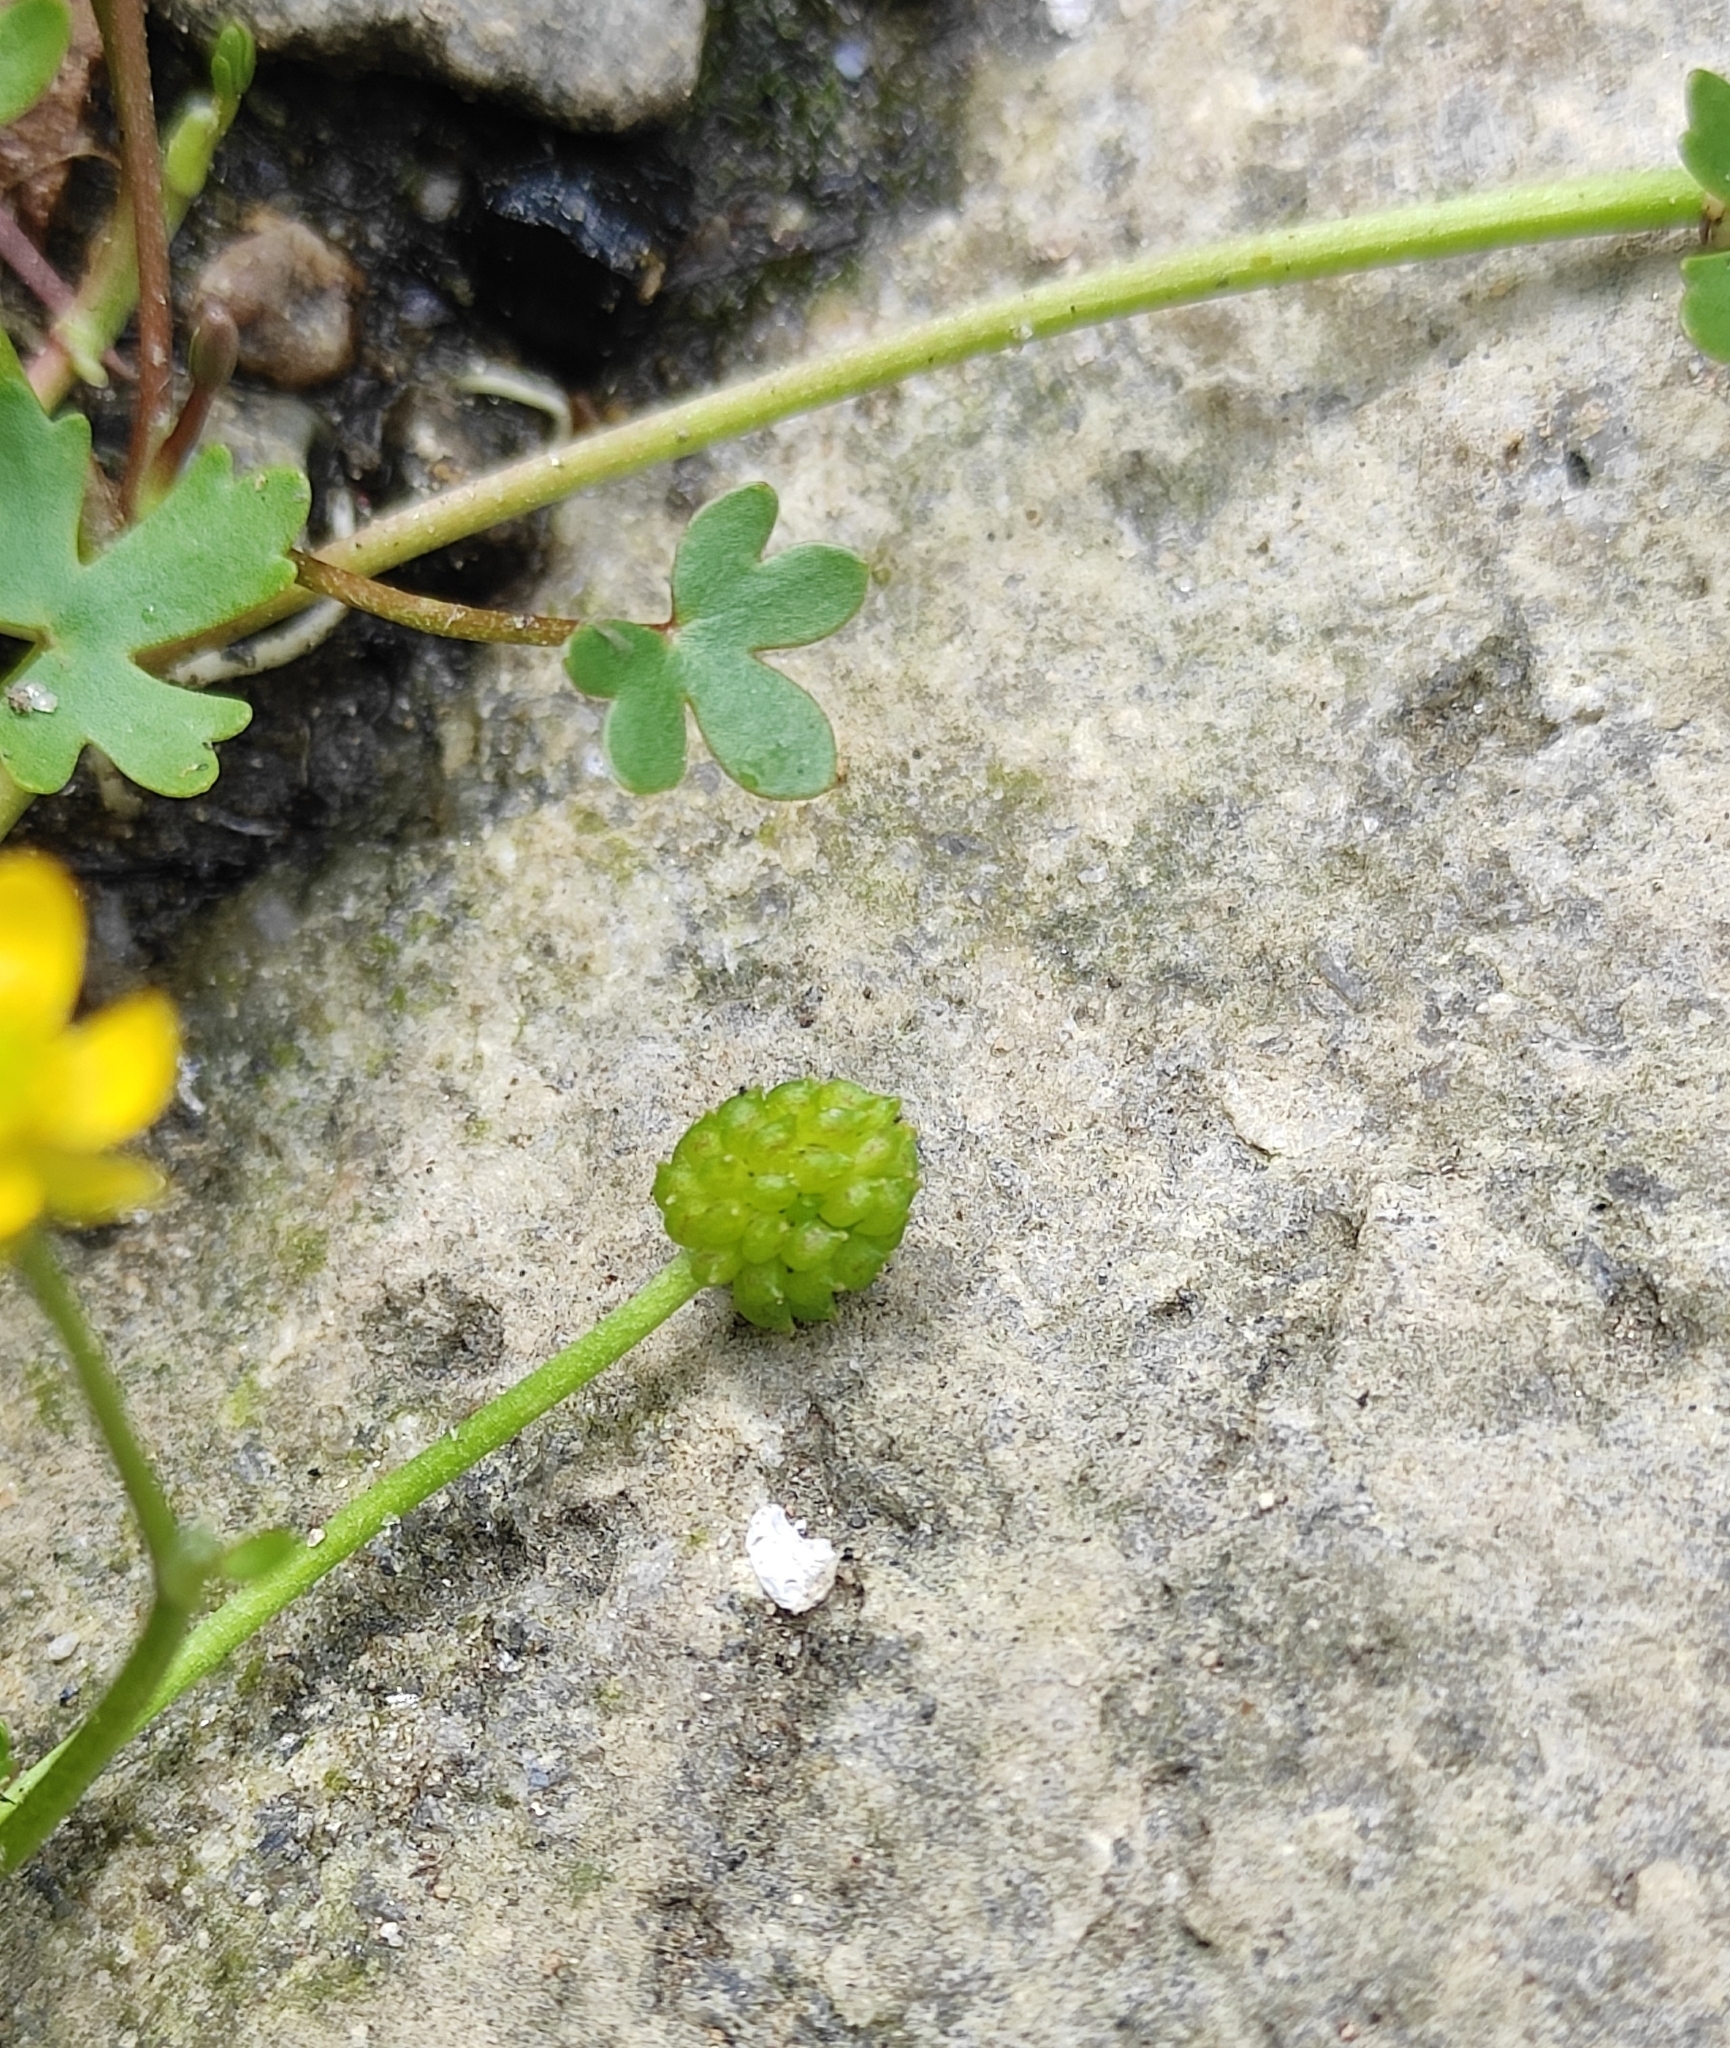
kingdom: Plantae
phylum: Tracheophyta
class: Magnoliopsida
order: Ranunculales
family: Ranunculaceae
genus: Ranunculus
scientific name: Ranunculus gmelinii
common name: Gmelin's buttercup
